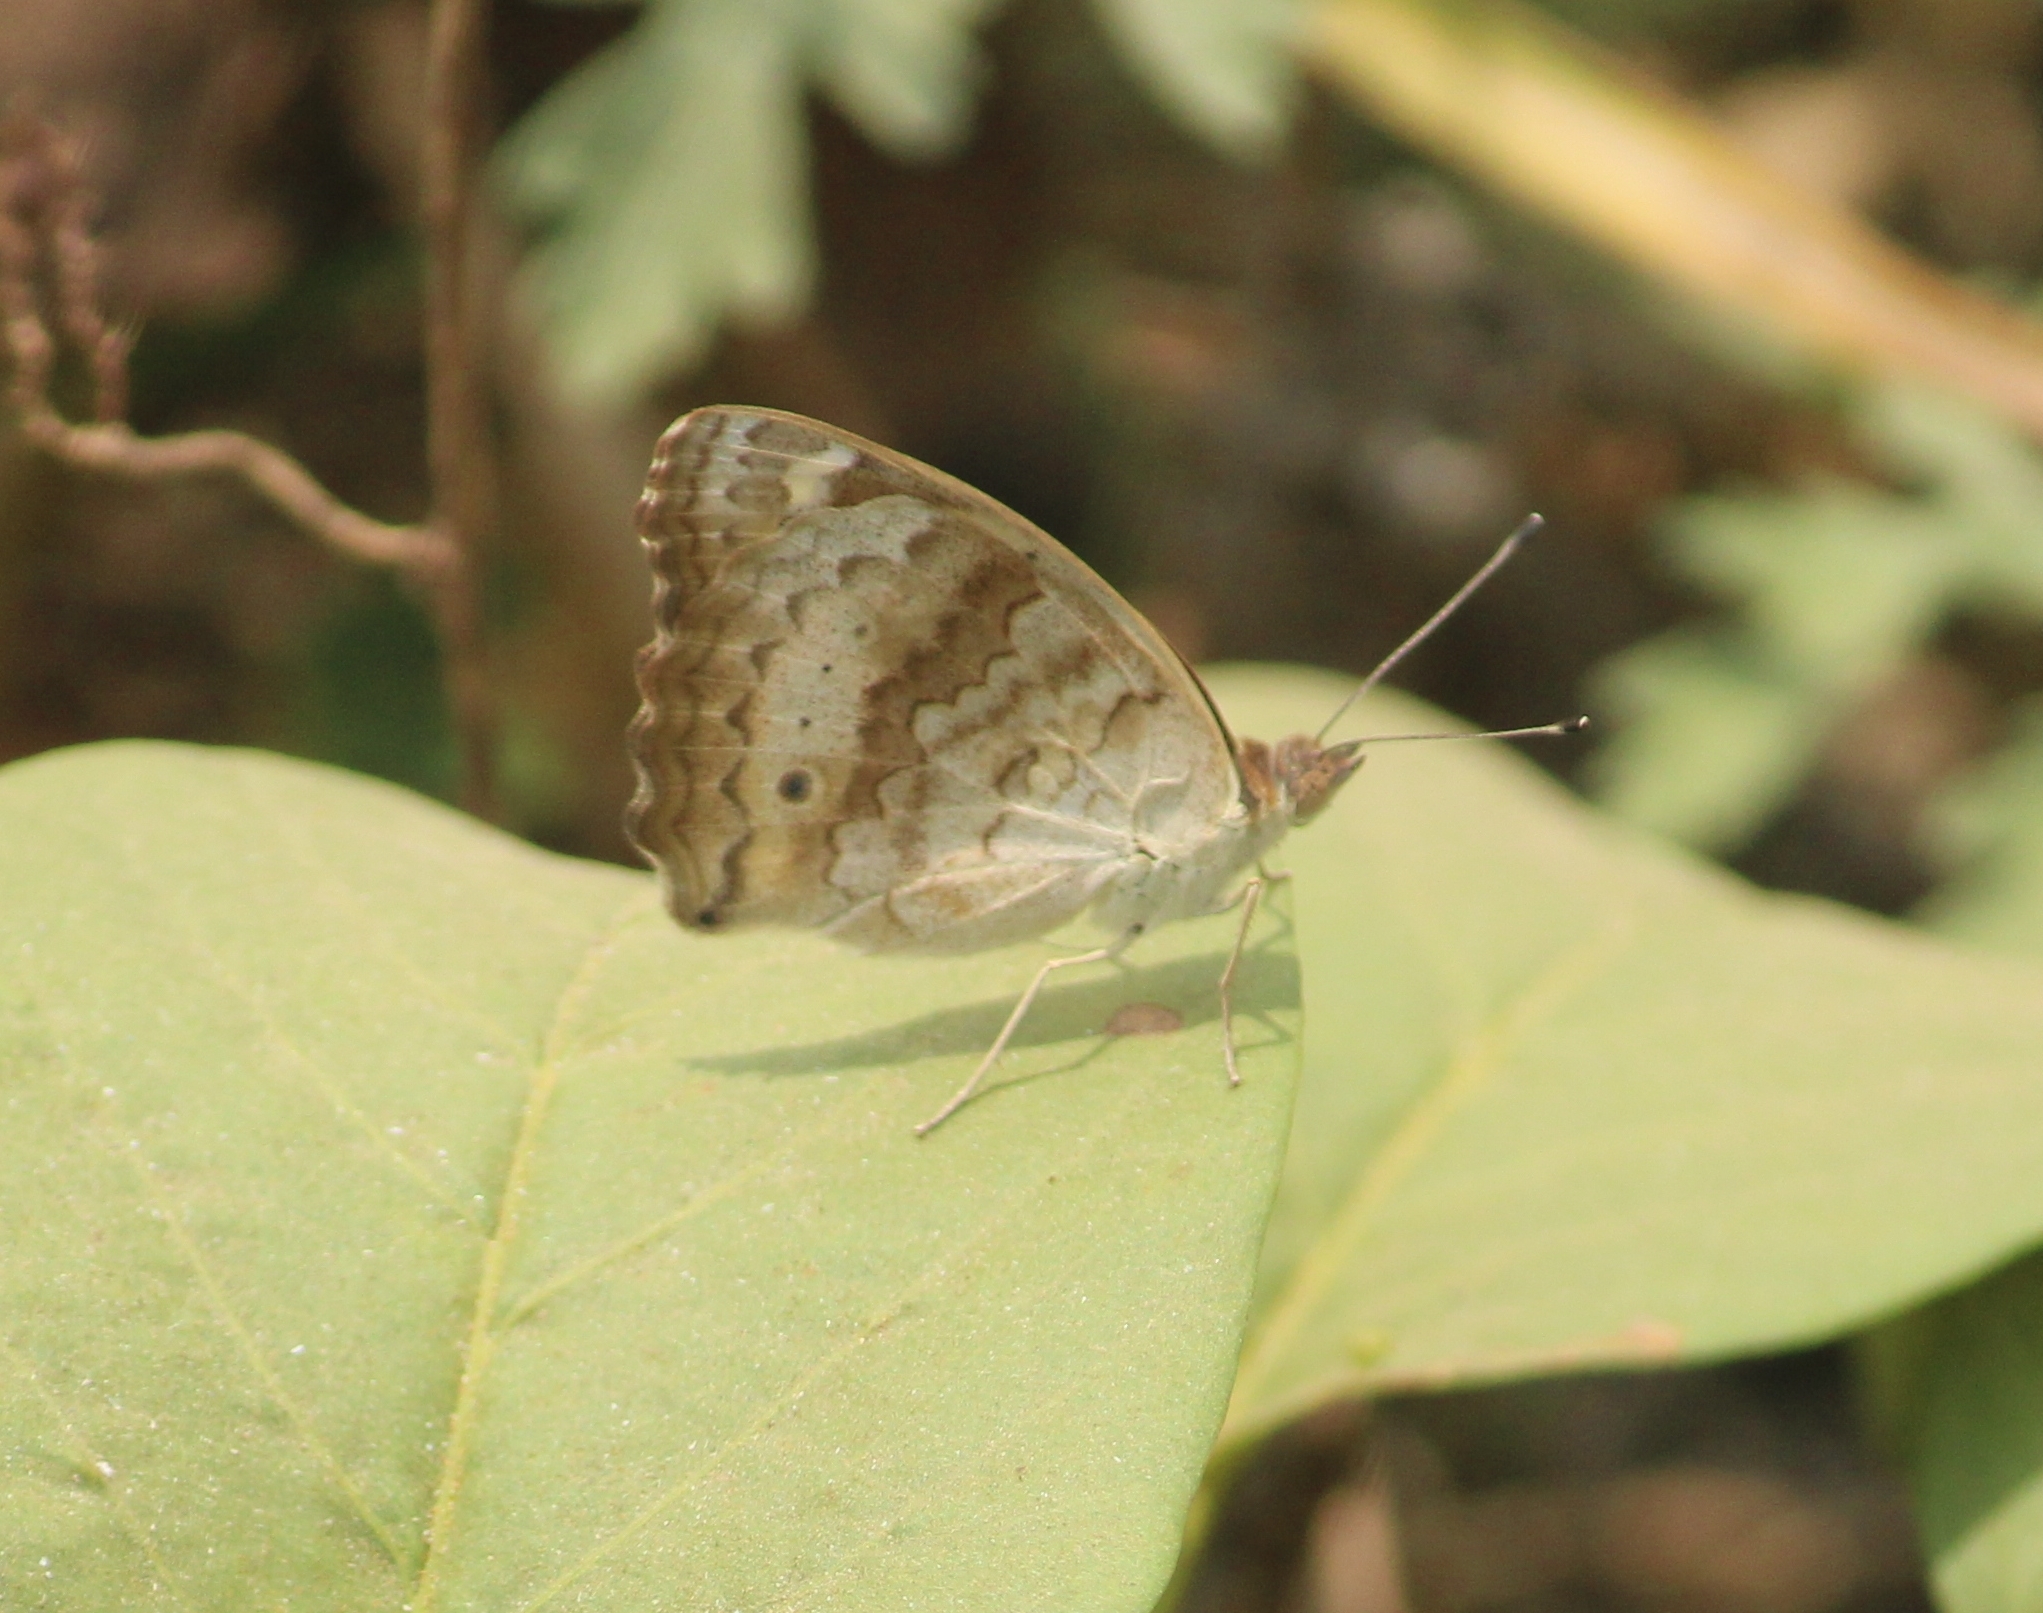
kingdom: Animalia
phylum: Arthropoda
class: Insecta
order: Lepidoptera
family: Nymphalidae
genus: Junonia
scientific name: Junonia hierta
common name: Yellow pansy
